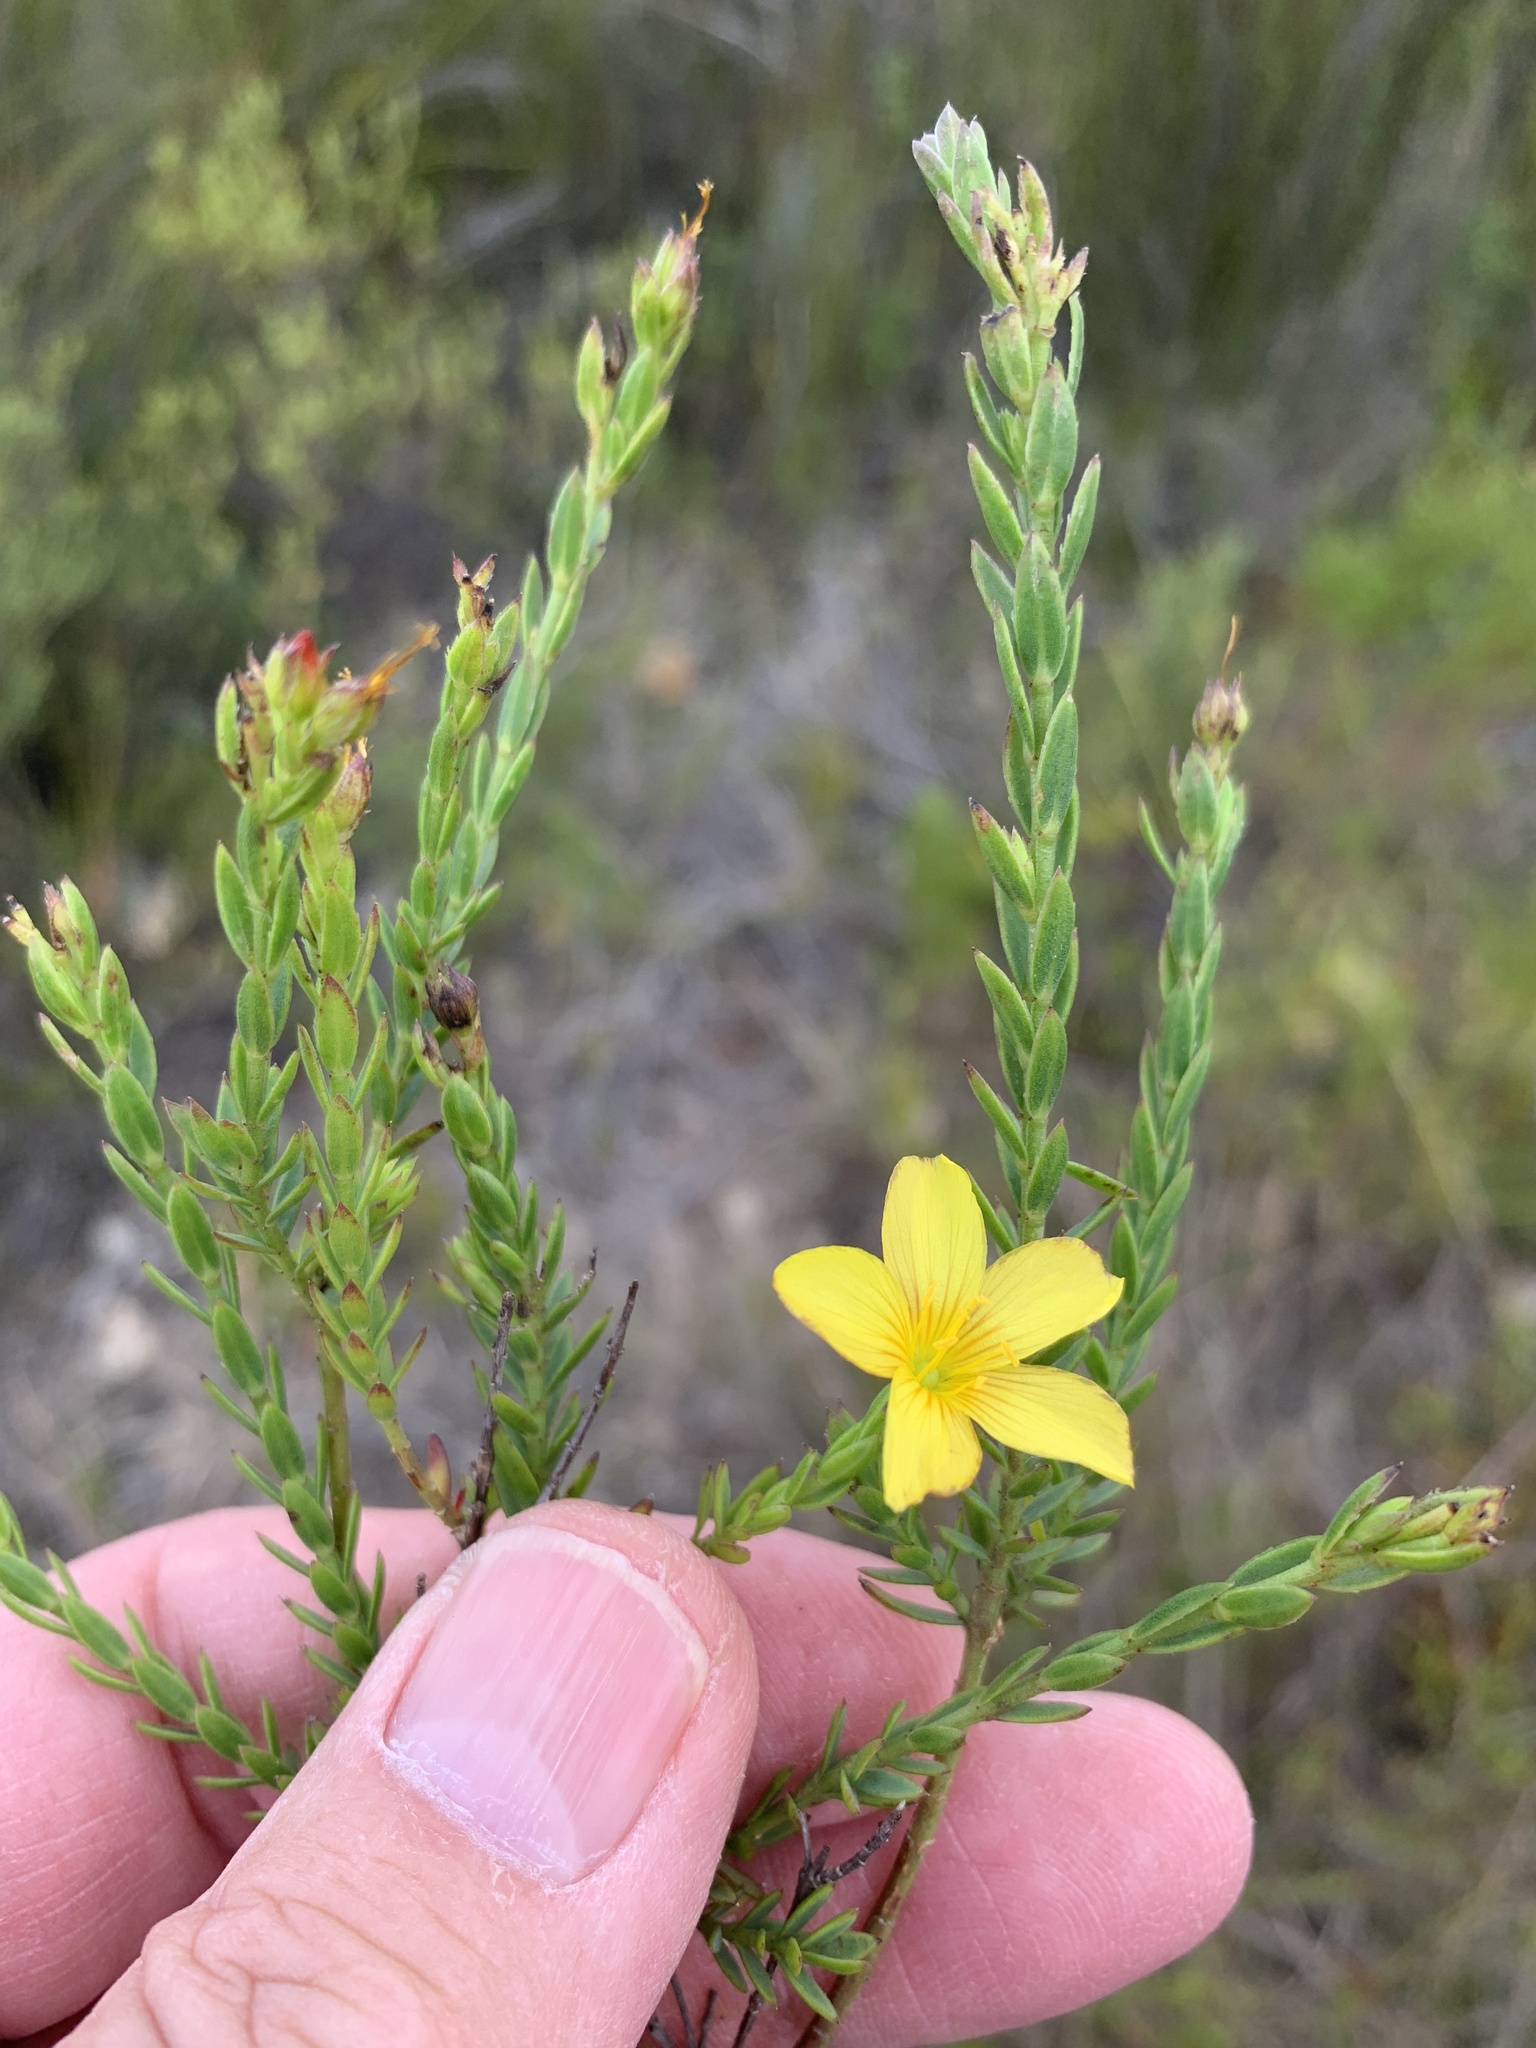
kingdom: Plantae
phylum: Tracheophyta
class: Magnoliopsida
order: Malpighiales
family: Linaceae
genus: Linum
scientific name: Linum africanum
